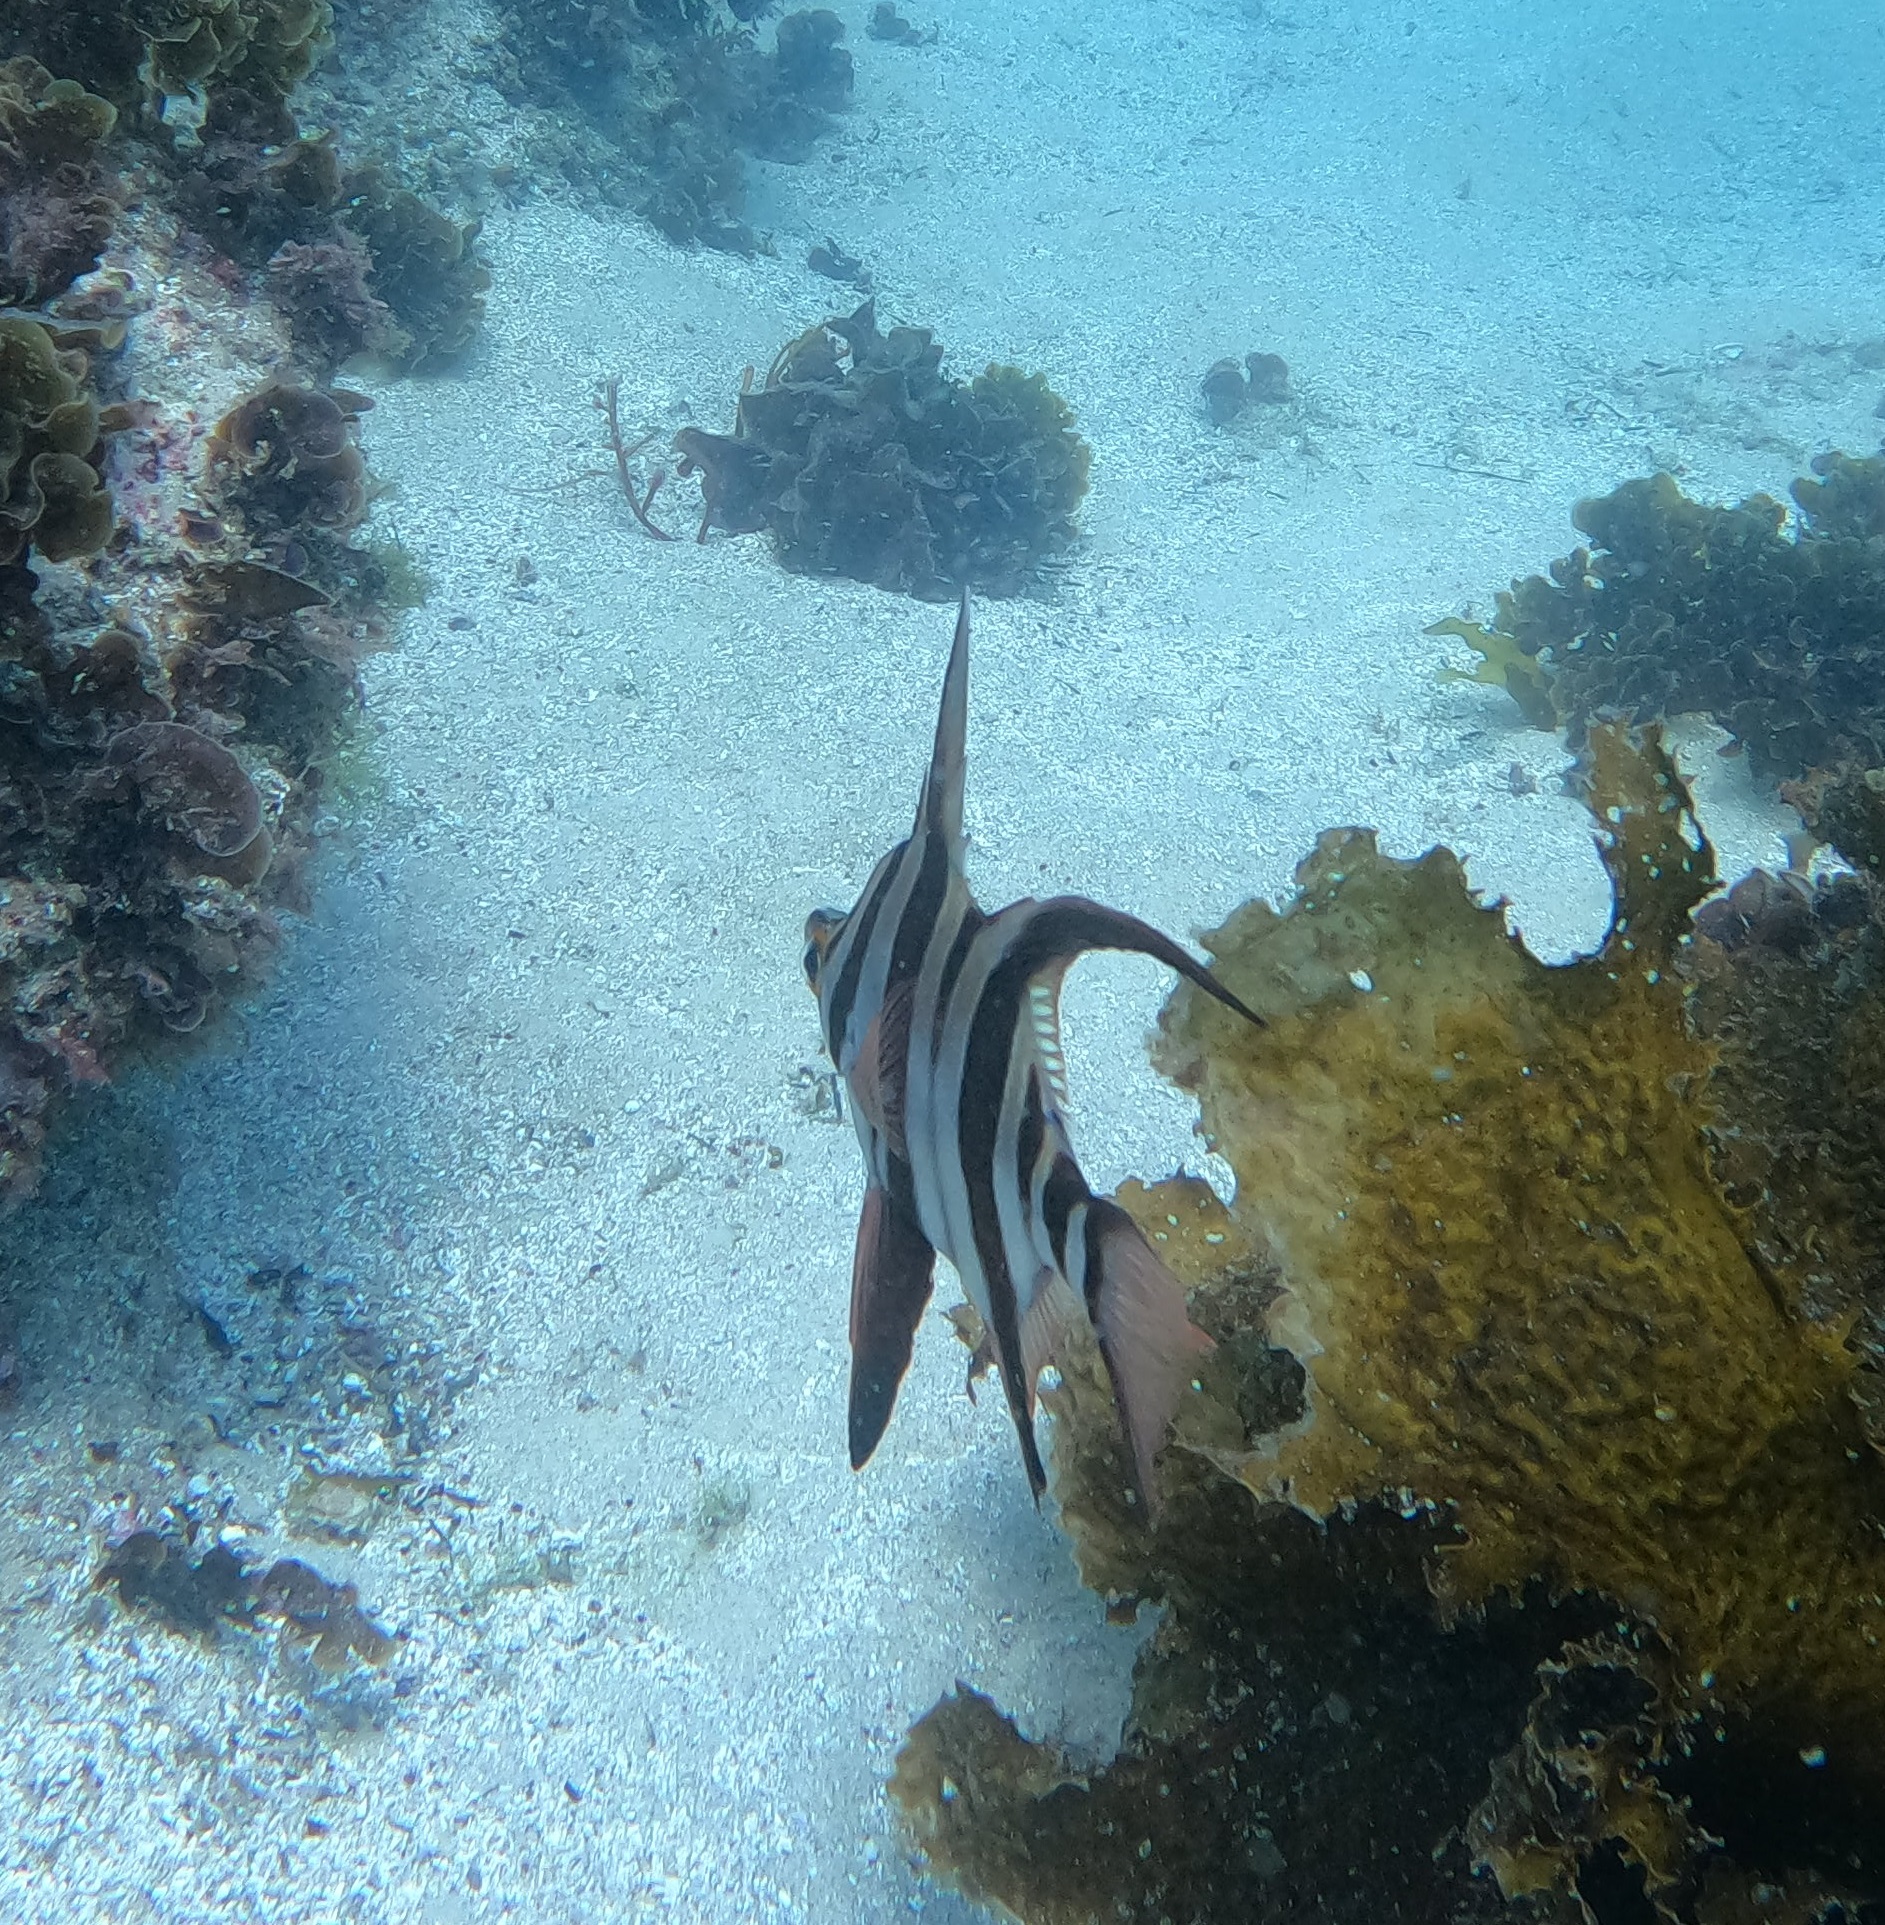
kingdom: Animalia
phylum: Chordata
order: Perciformes
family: Enoplosidae
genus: Enoplosus
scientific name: Enoplosus armatus
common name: Old wife
